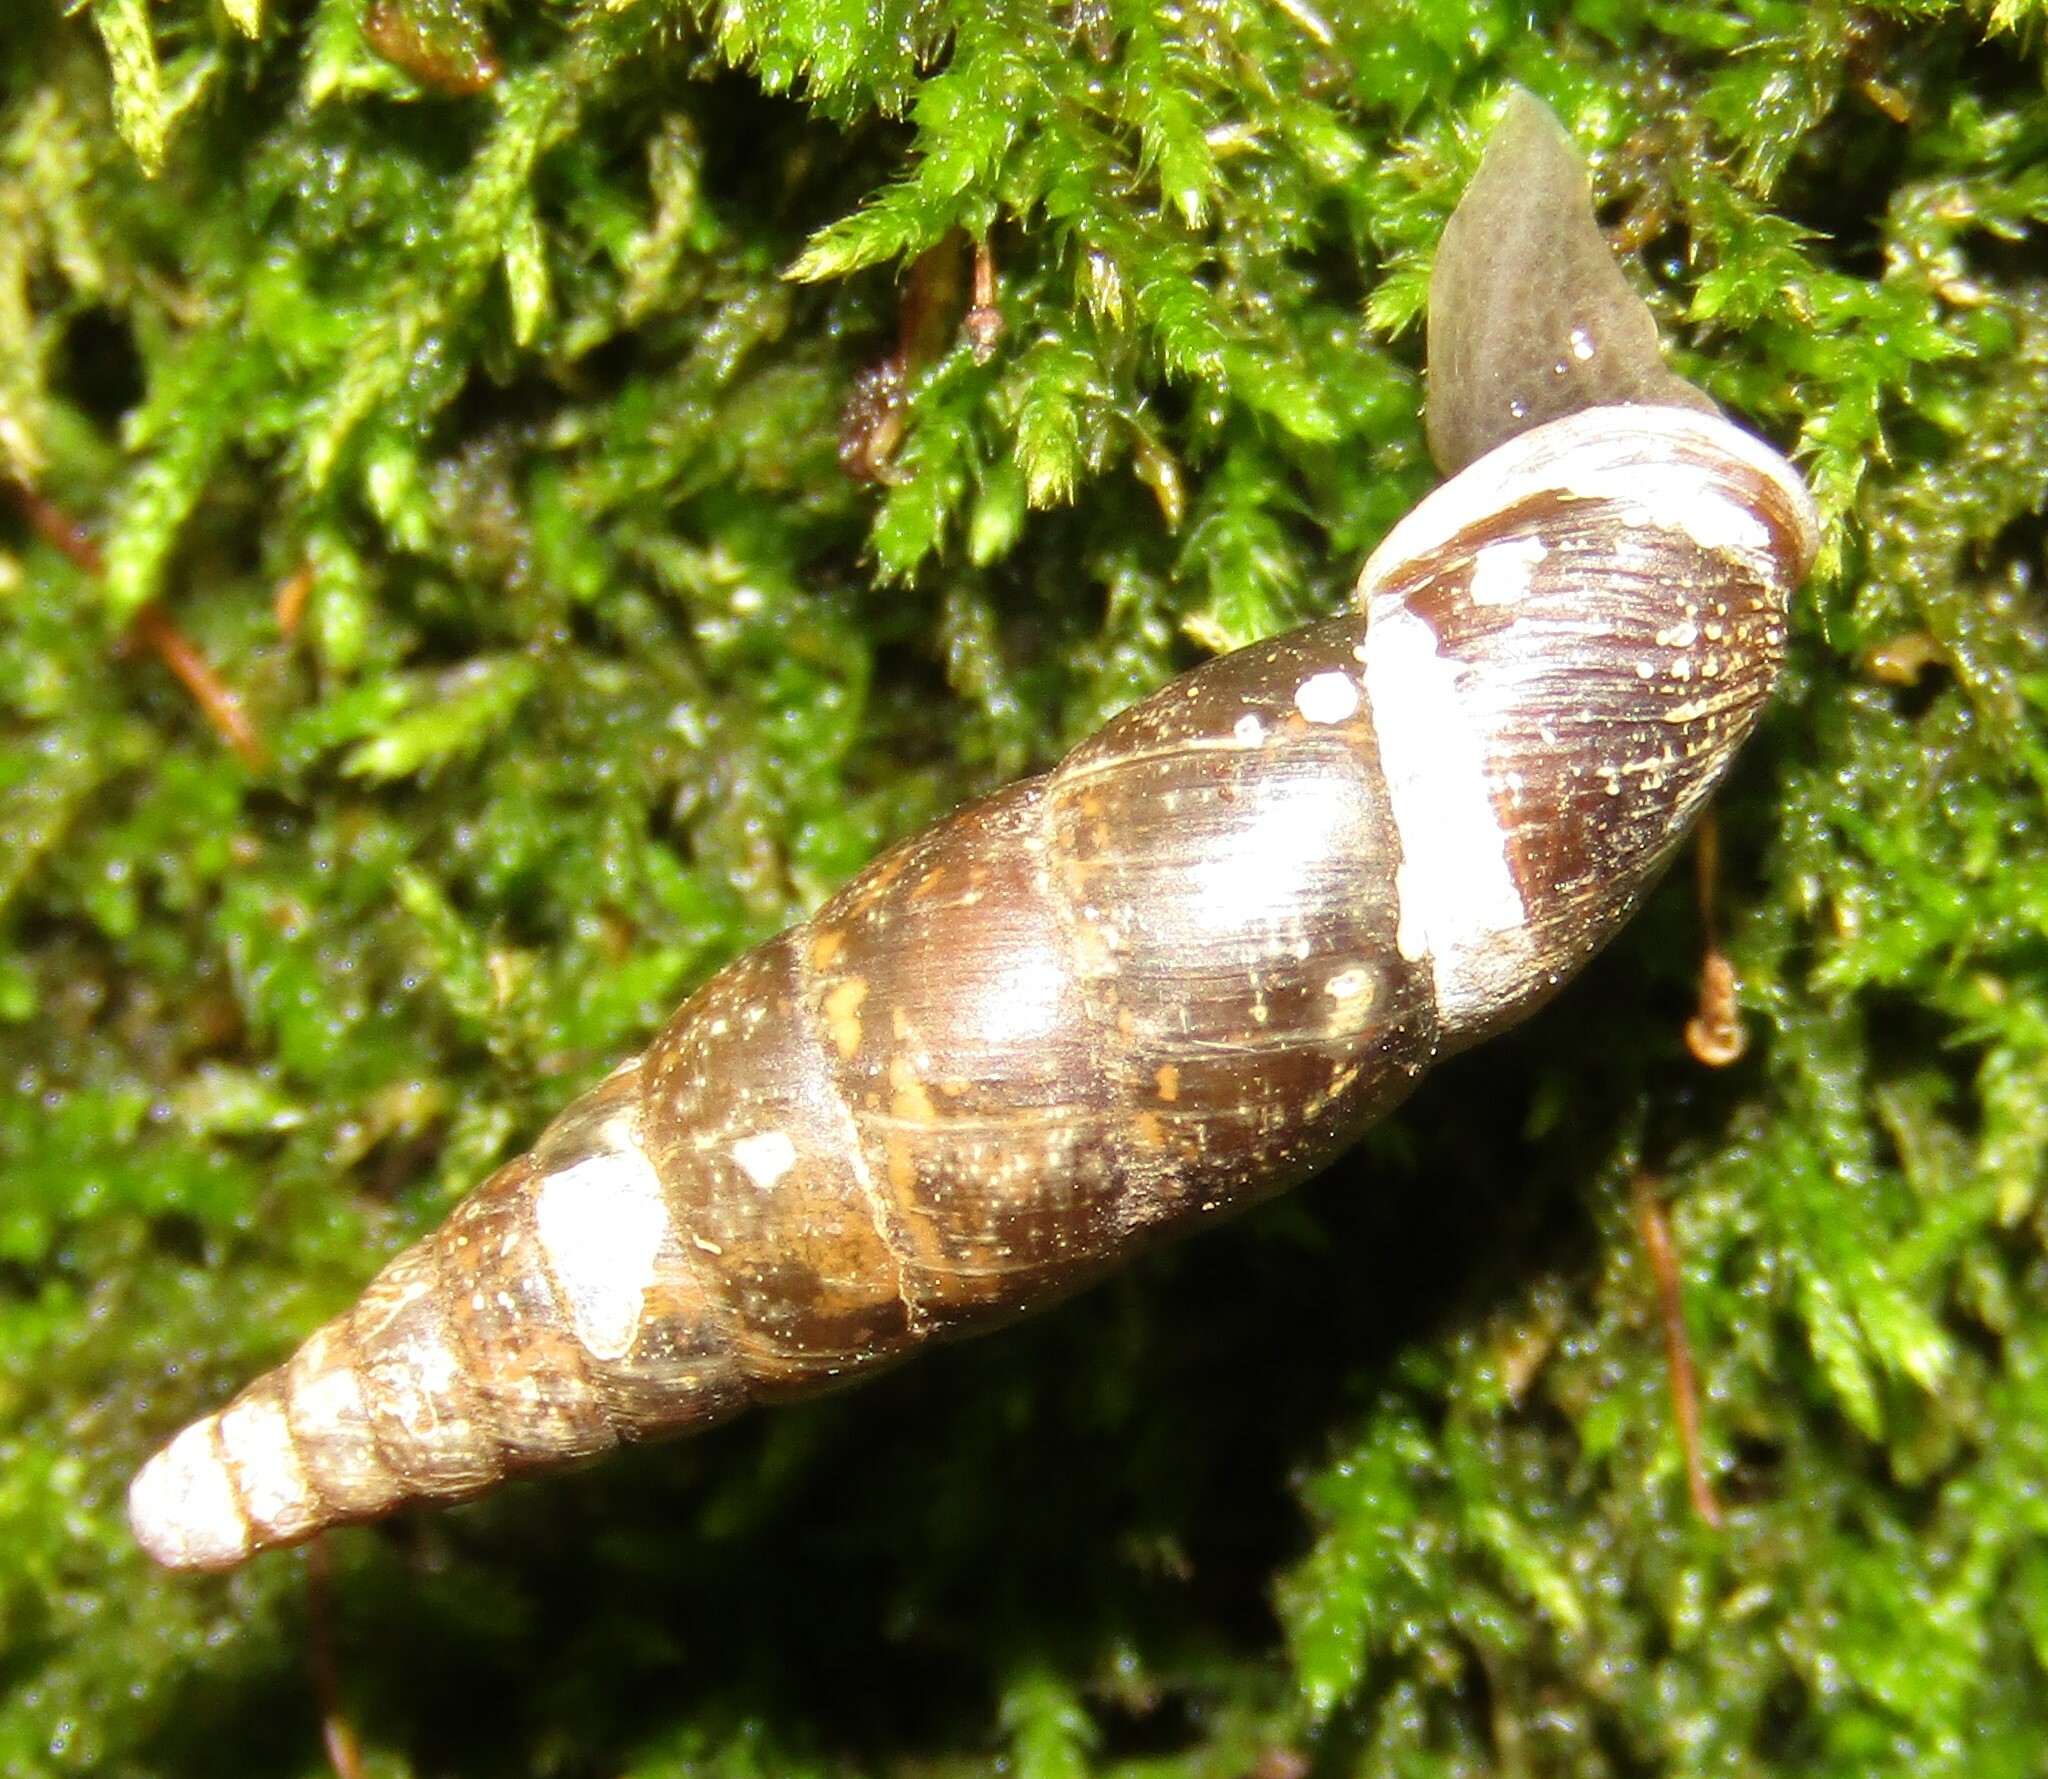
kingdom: Animalia
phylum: Mollusca
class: Gastropoda
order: Stylommatophora
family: Clausiliidae
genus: Cochlodina
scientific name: Cochlodina laminata
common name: Plaited door snail
